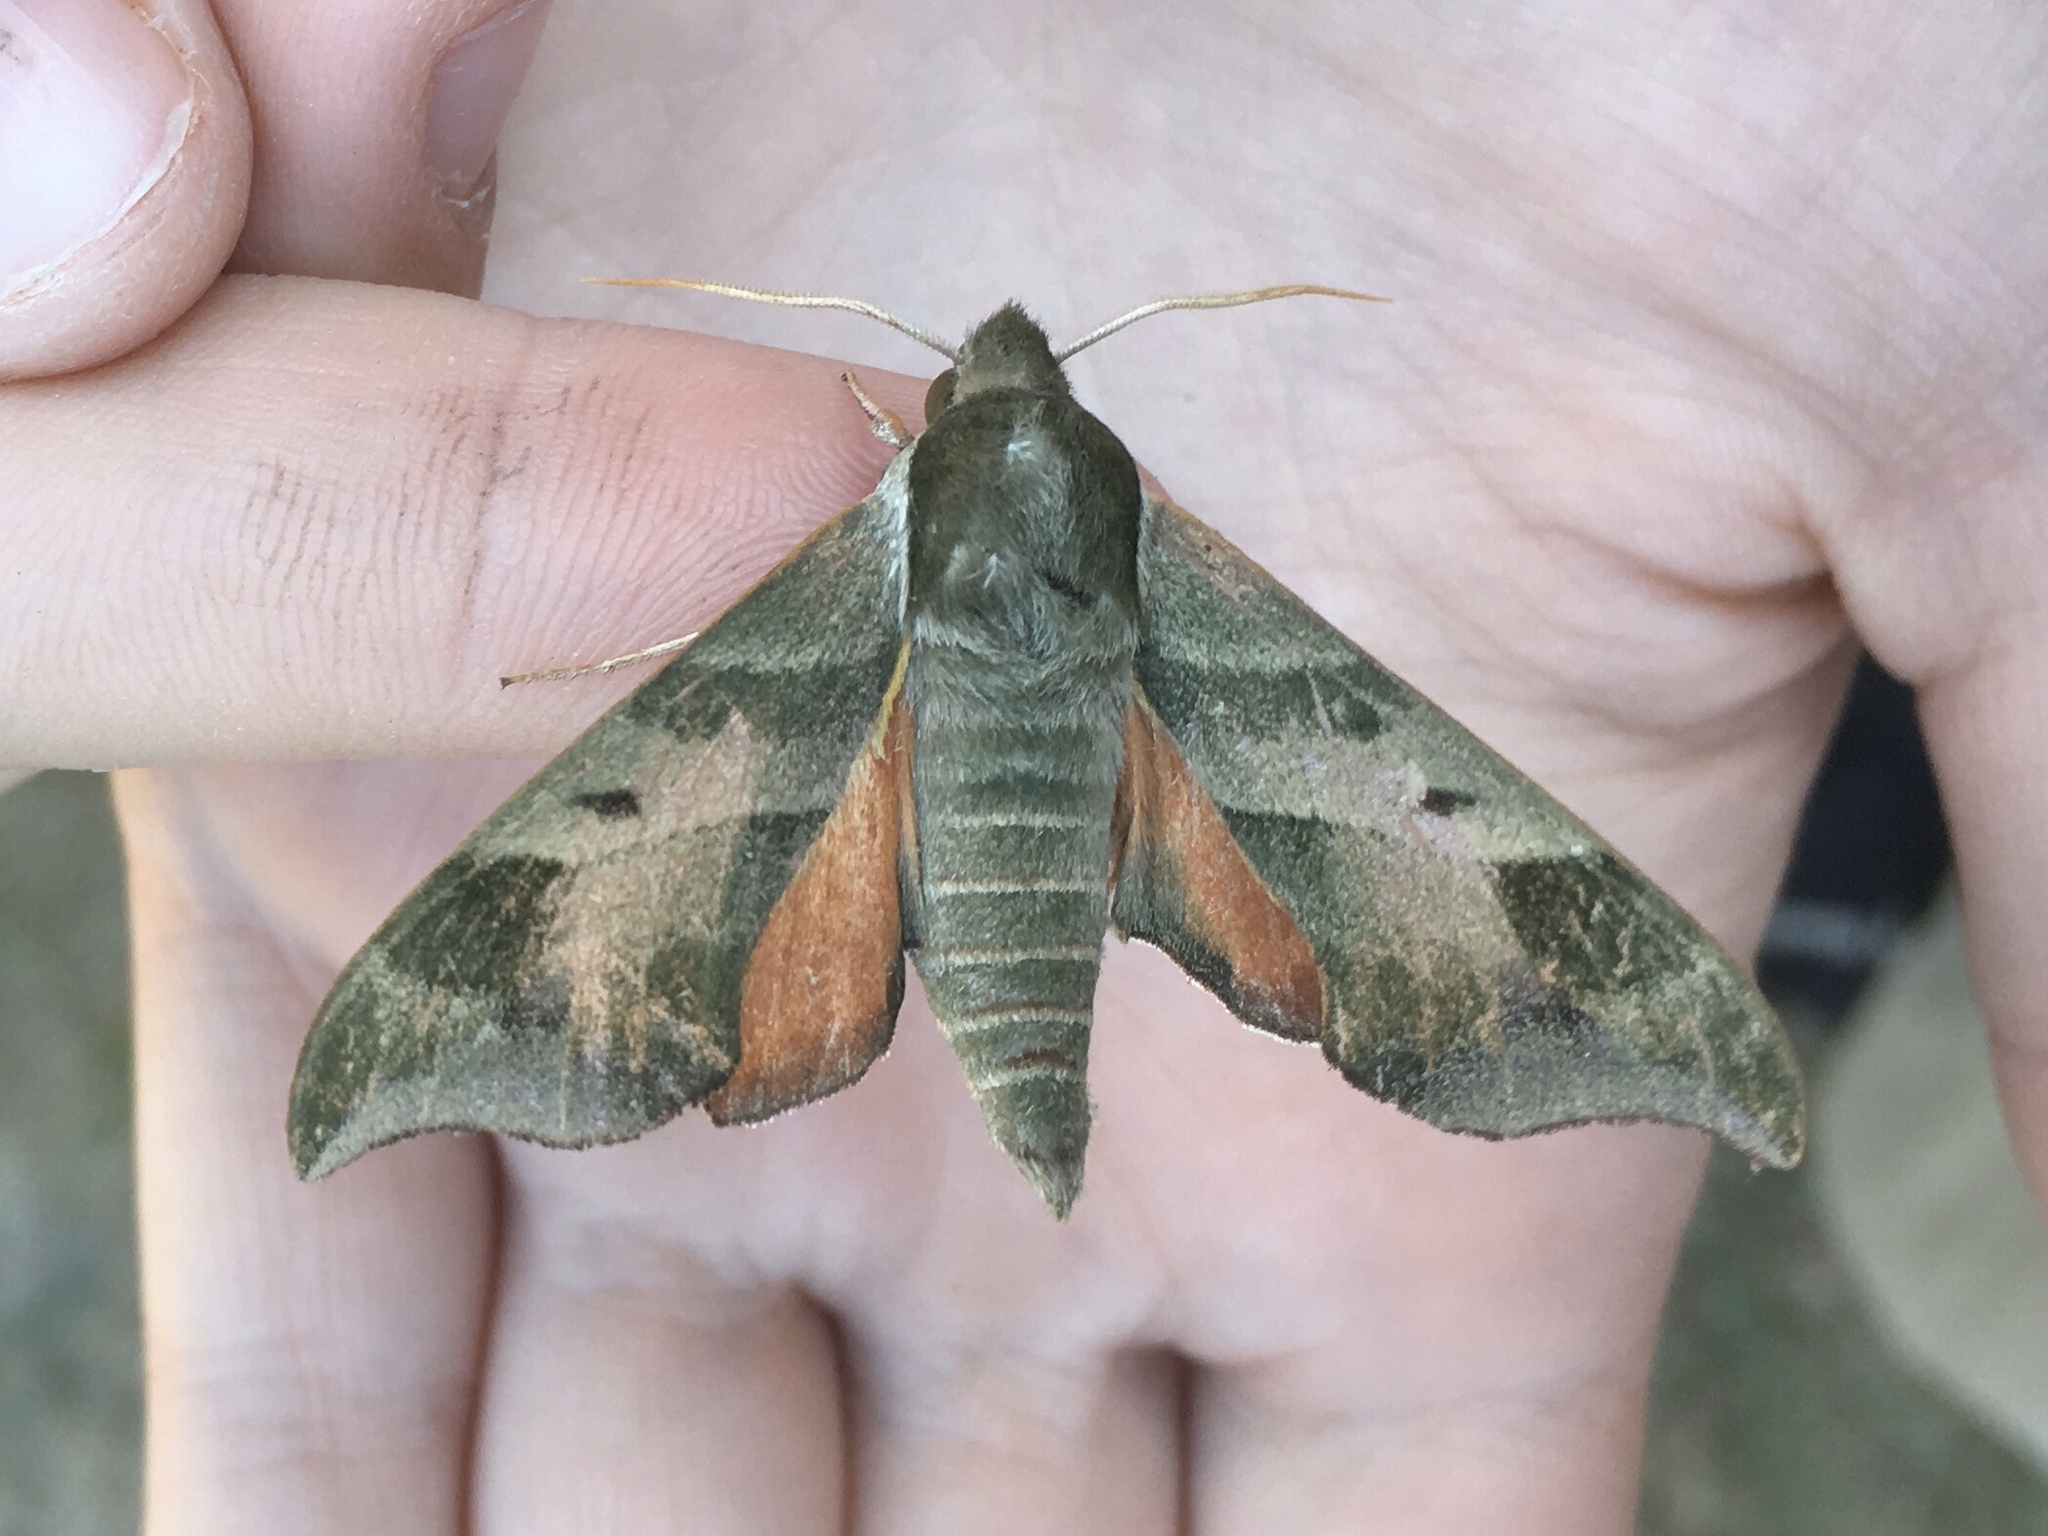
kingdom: Animalia
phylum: Arthropoda
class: Insecta
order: Lepidoptera
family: Sphingidae
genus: Darapsa
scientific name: Darapsa myron
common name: Hog sphinx
